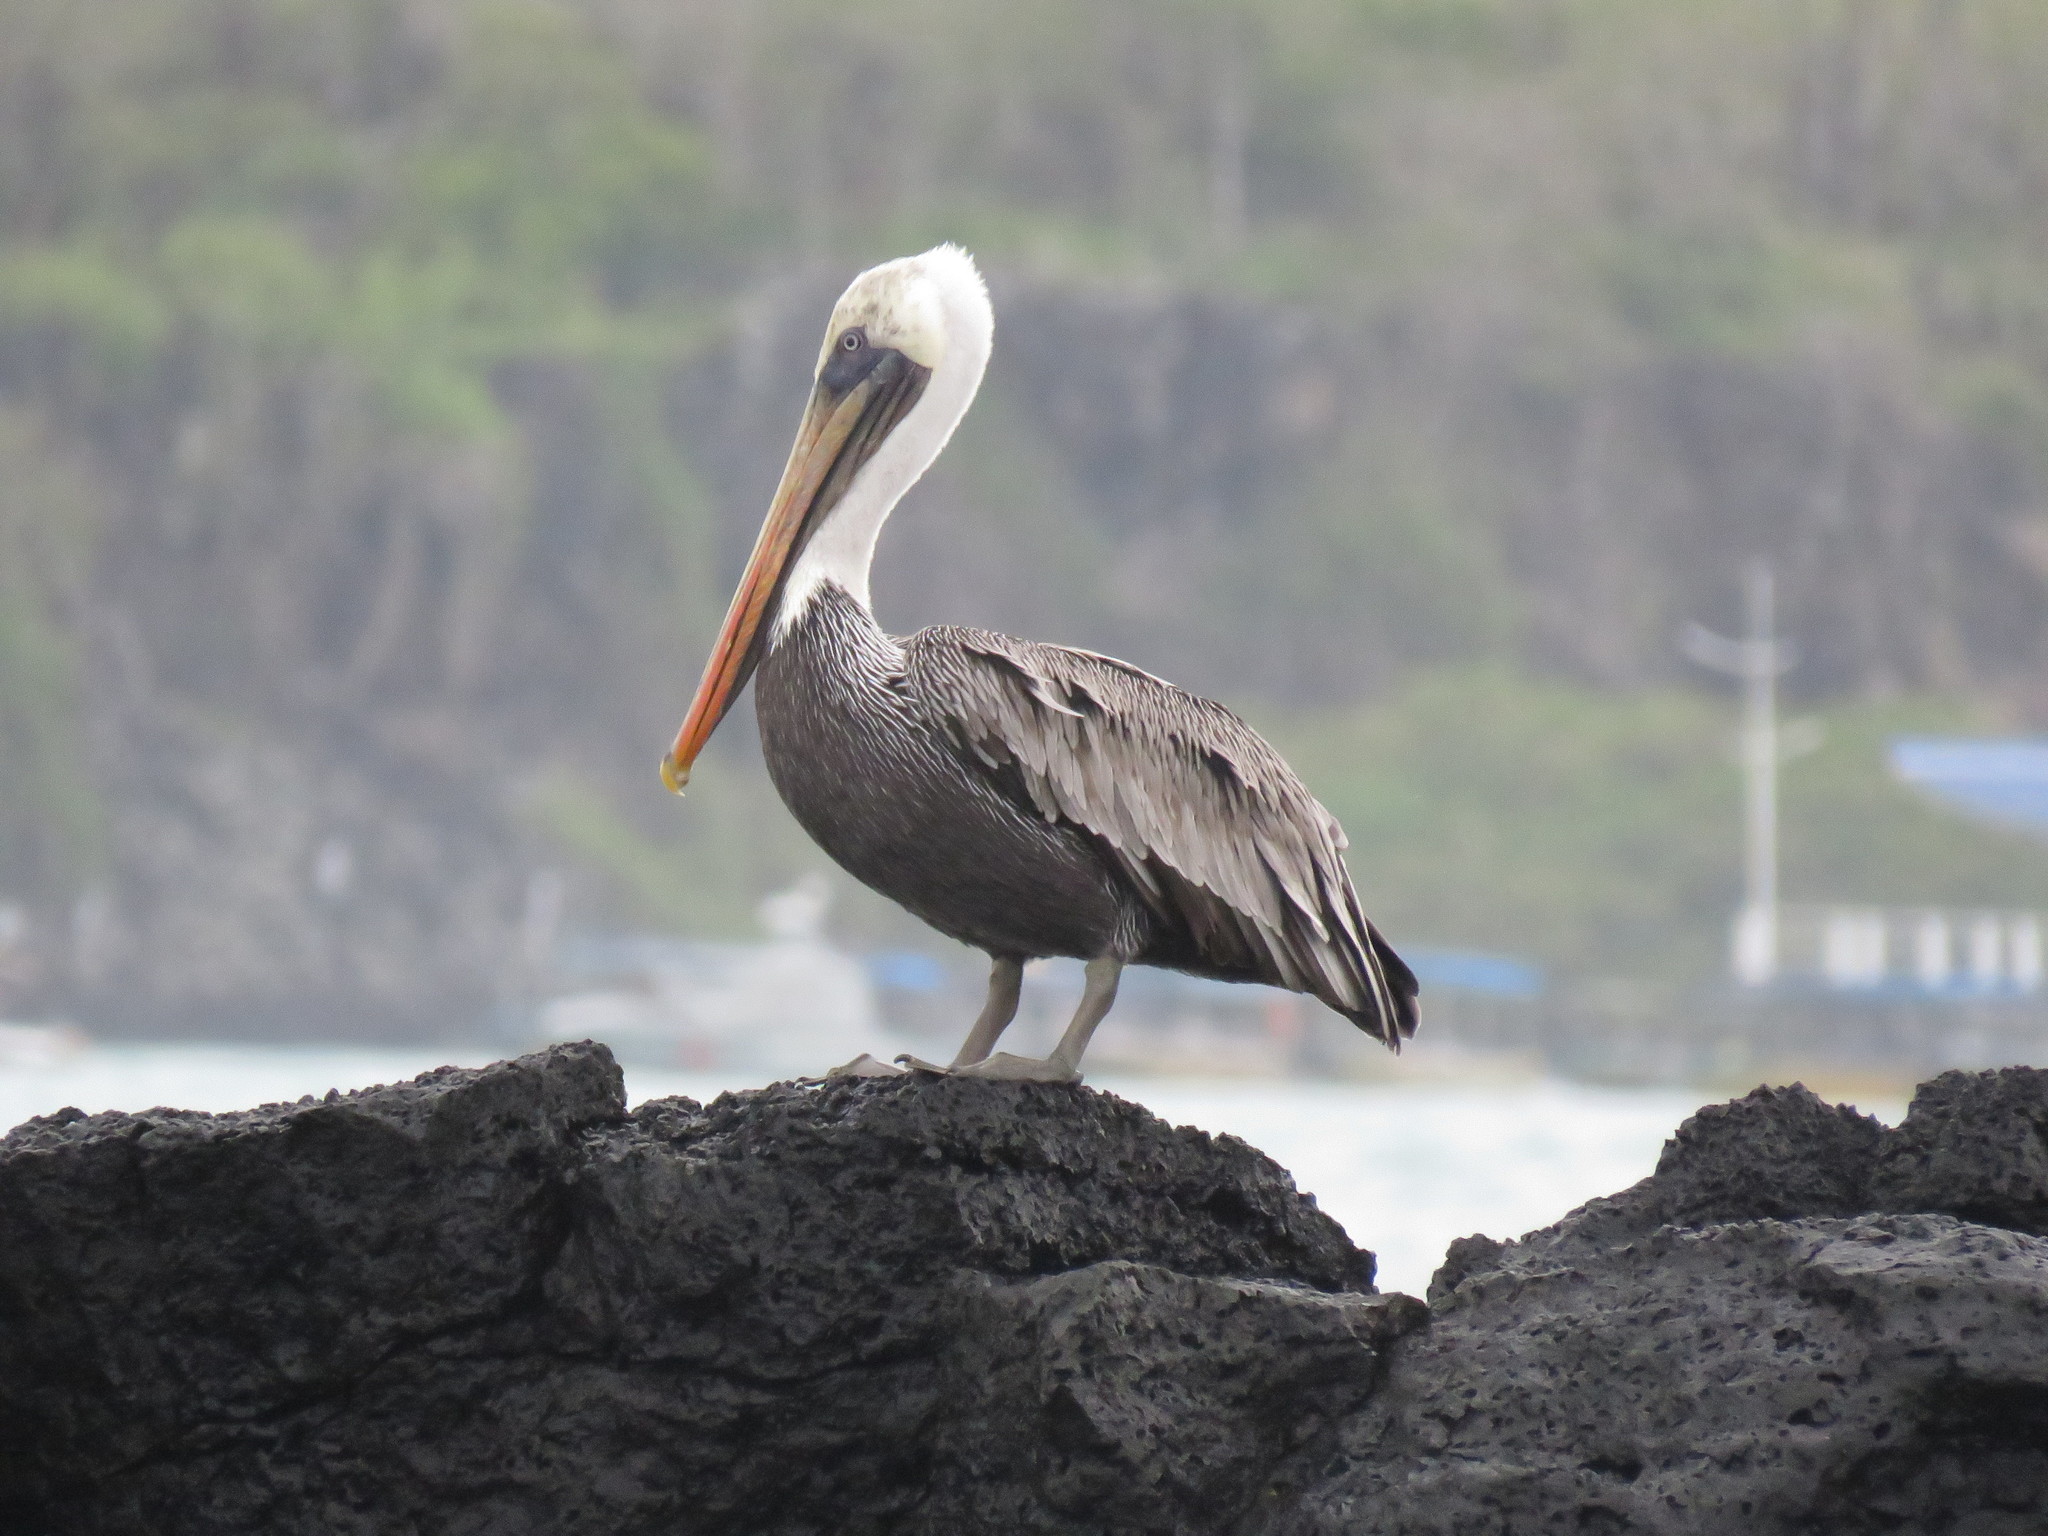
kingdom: Animalia
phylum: Chordata
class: Aves
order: Pelecaniformes
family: Pelecanidae
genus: Pelecanus
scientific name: Pelecanus occidentalis
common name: Brown pelican
